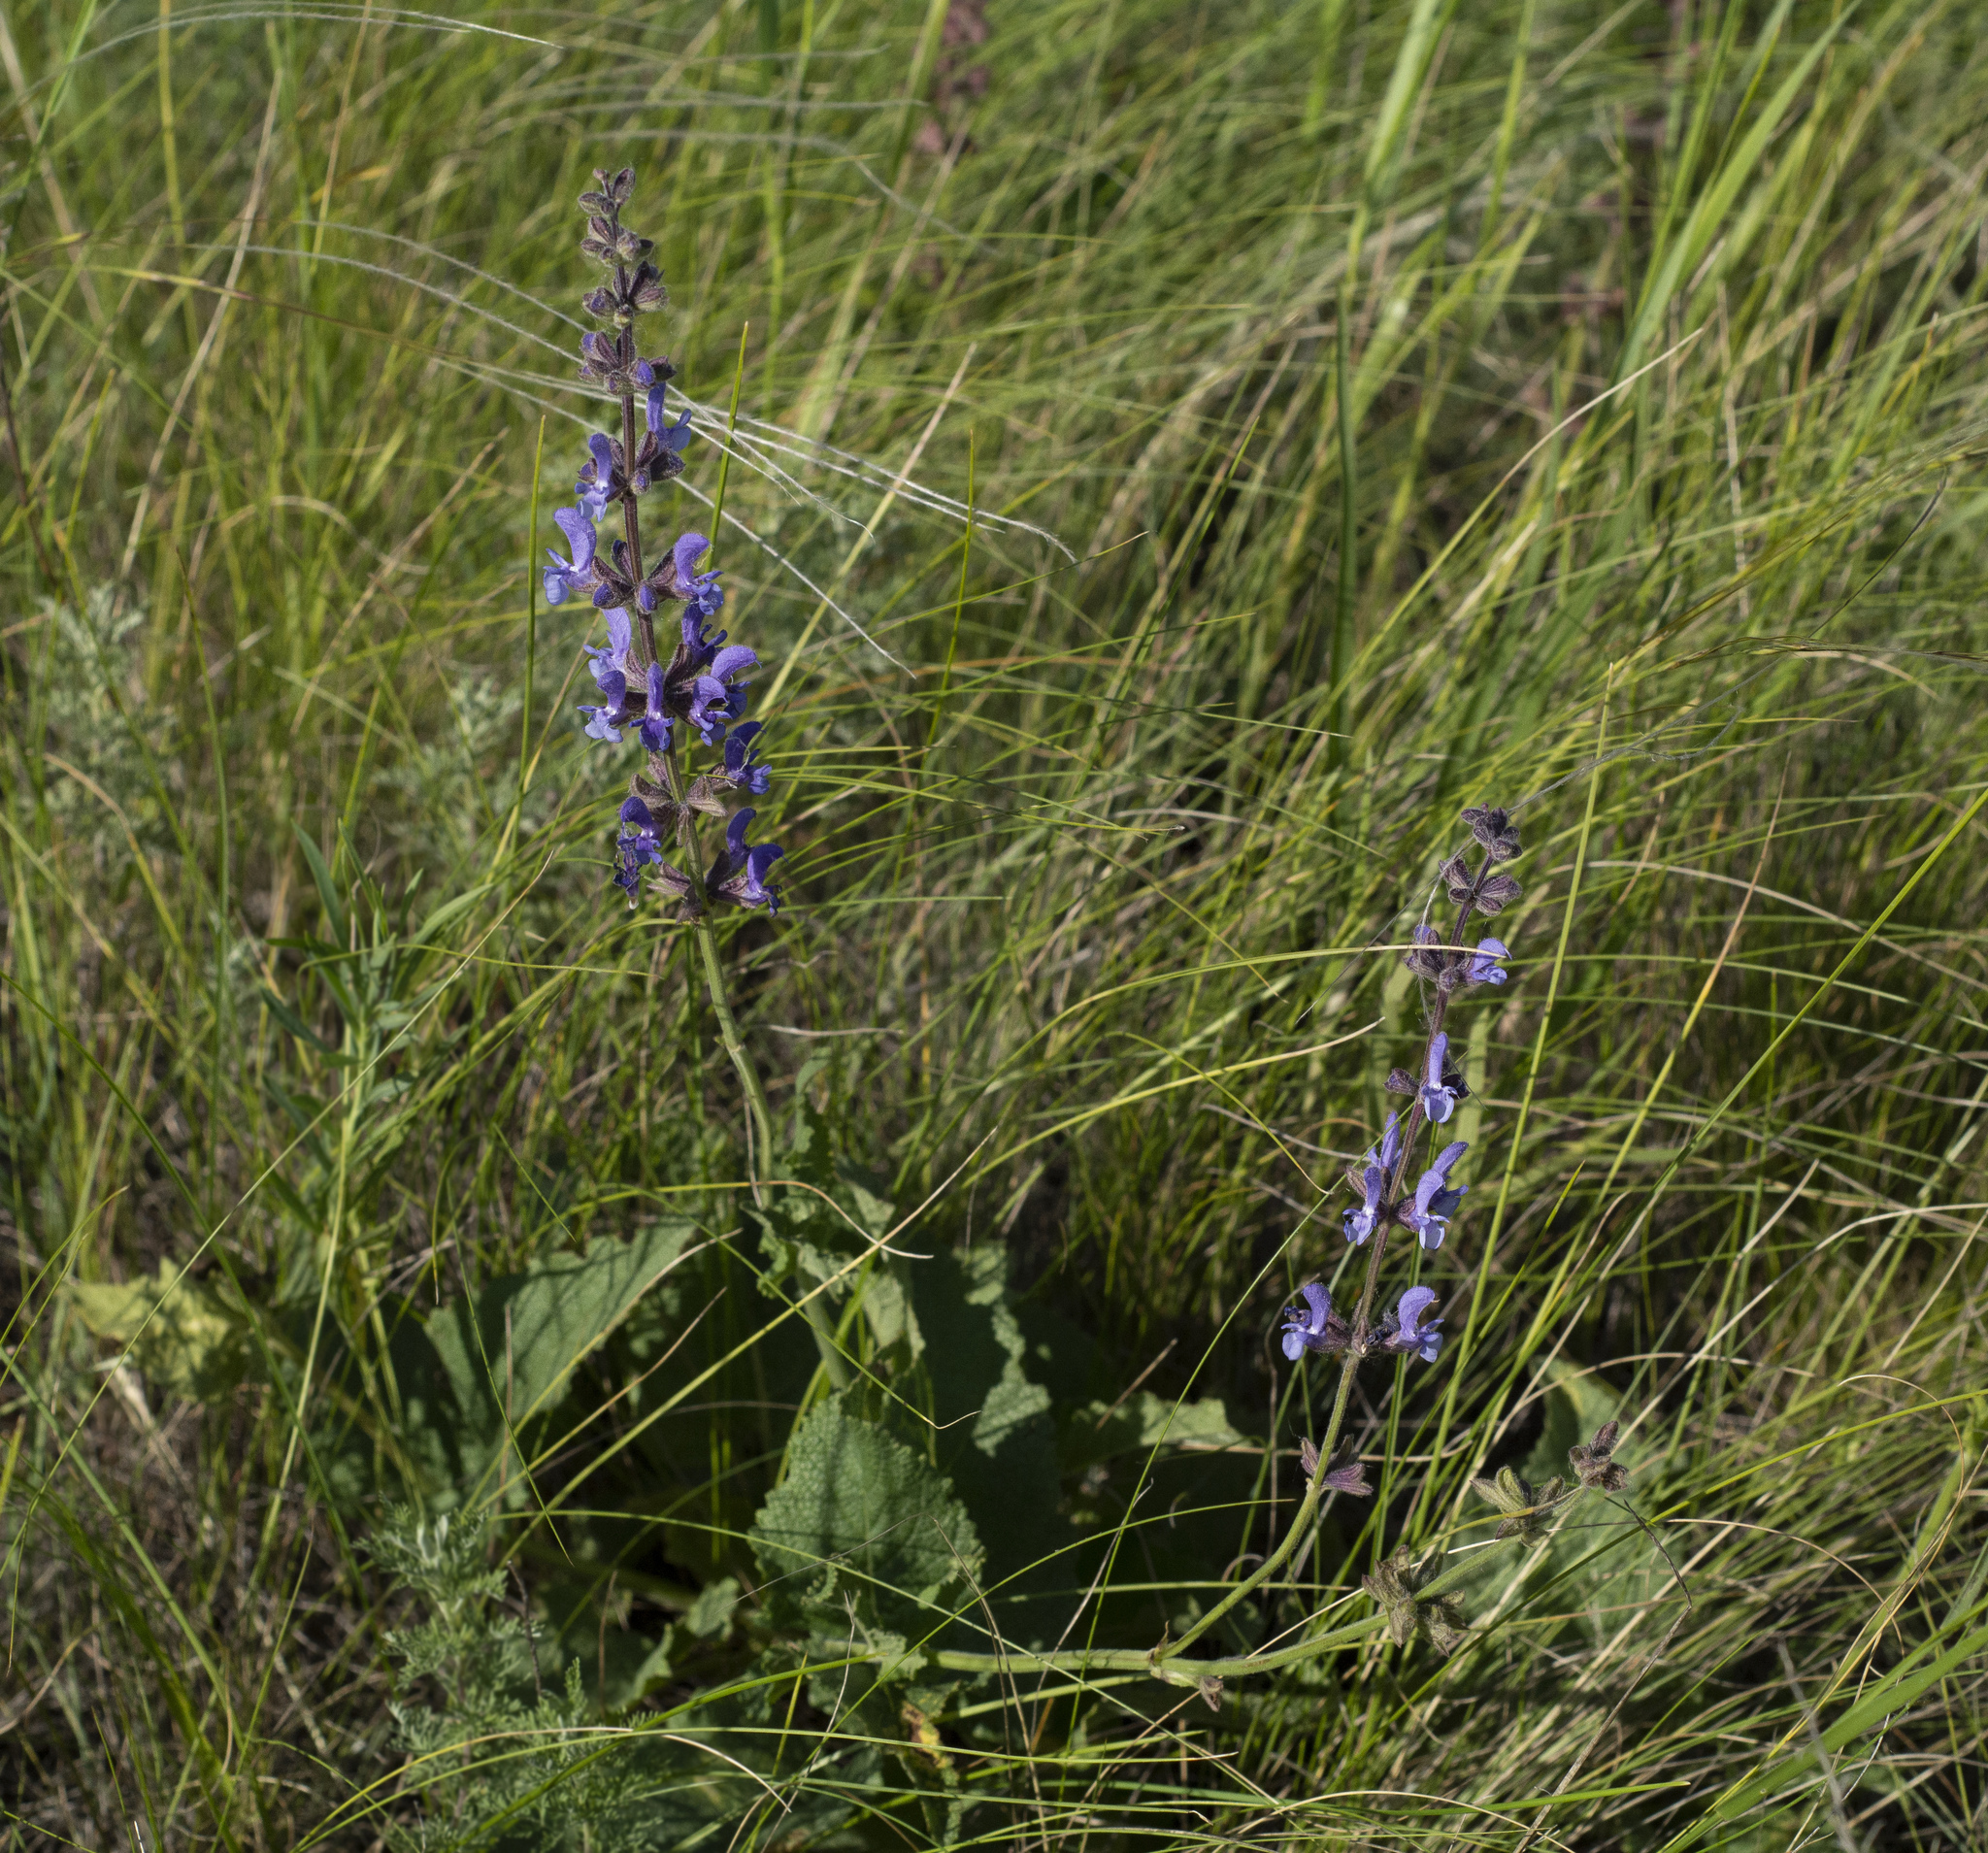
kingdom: Plantae
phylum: Tracheophyta
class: Magnoliopsida
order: Lamiales
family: Lamiaceae
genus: Salvia
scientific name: Salvia dumetorum
